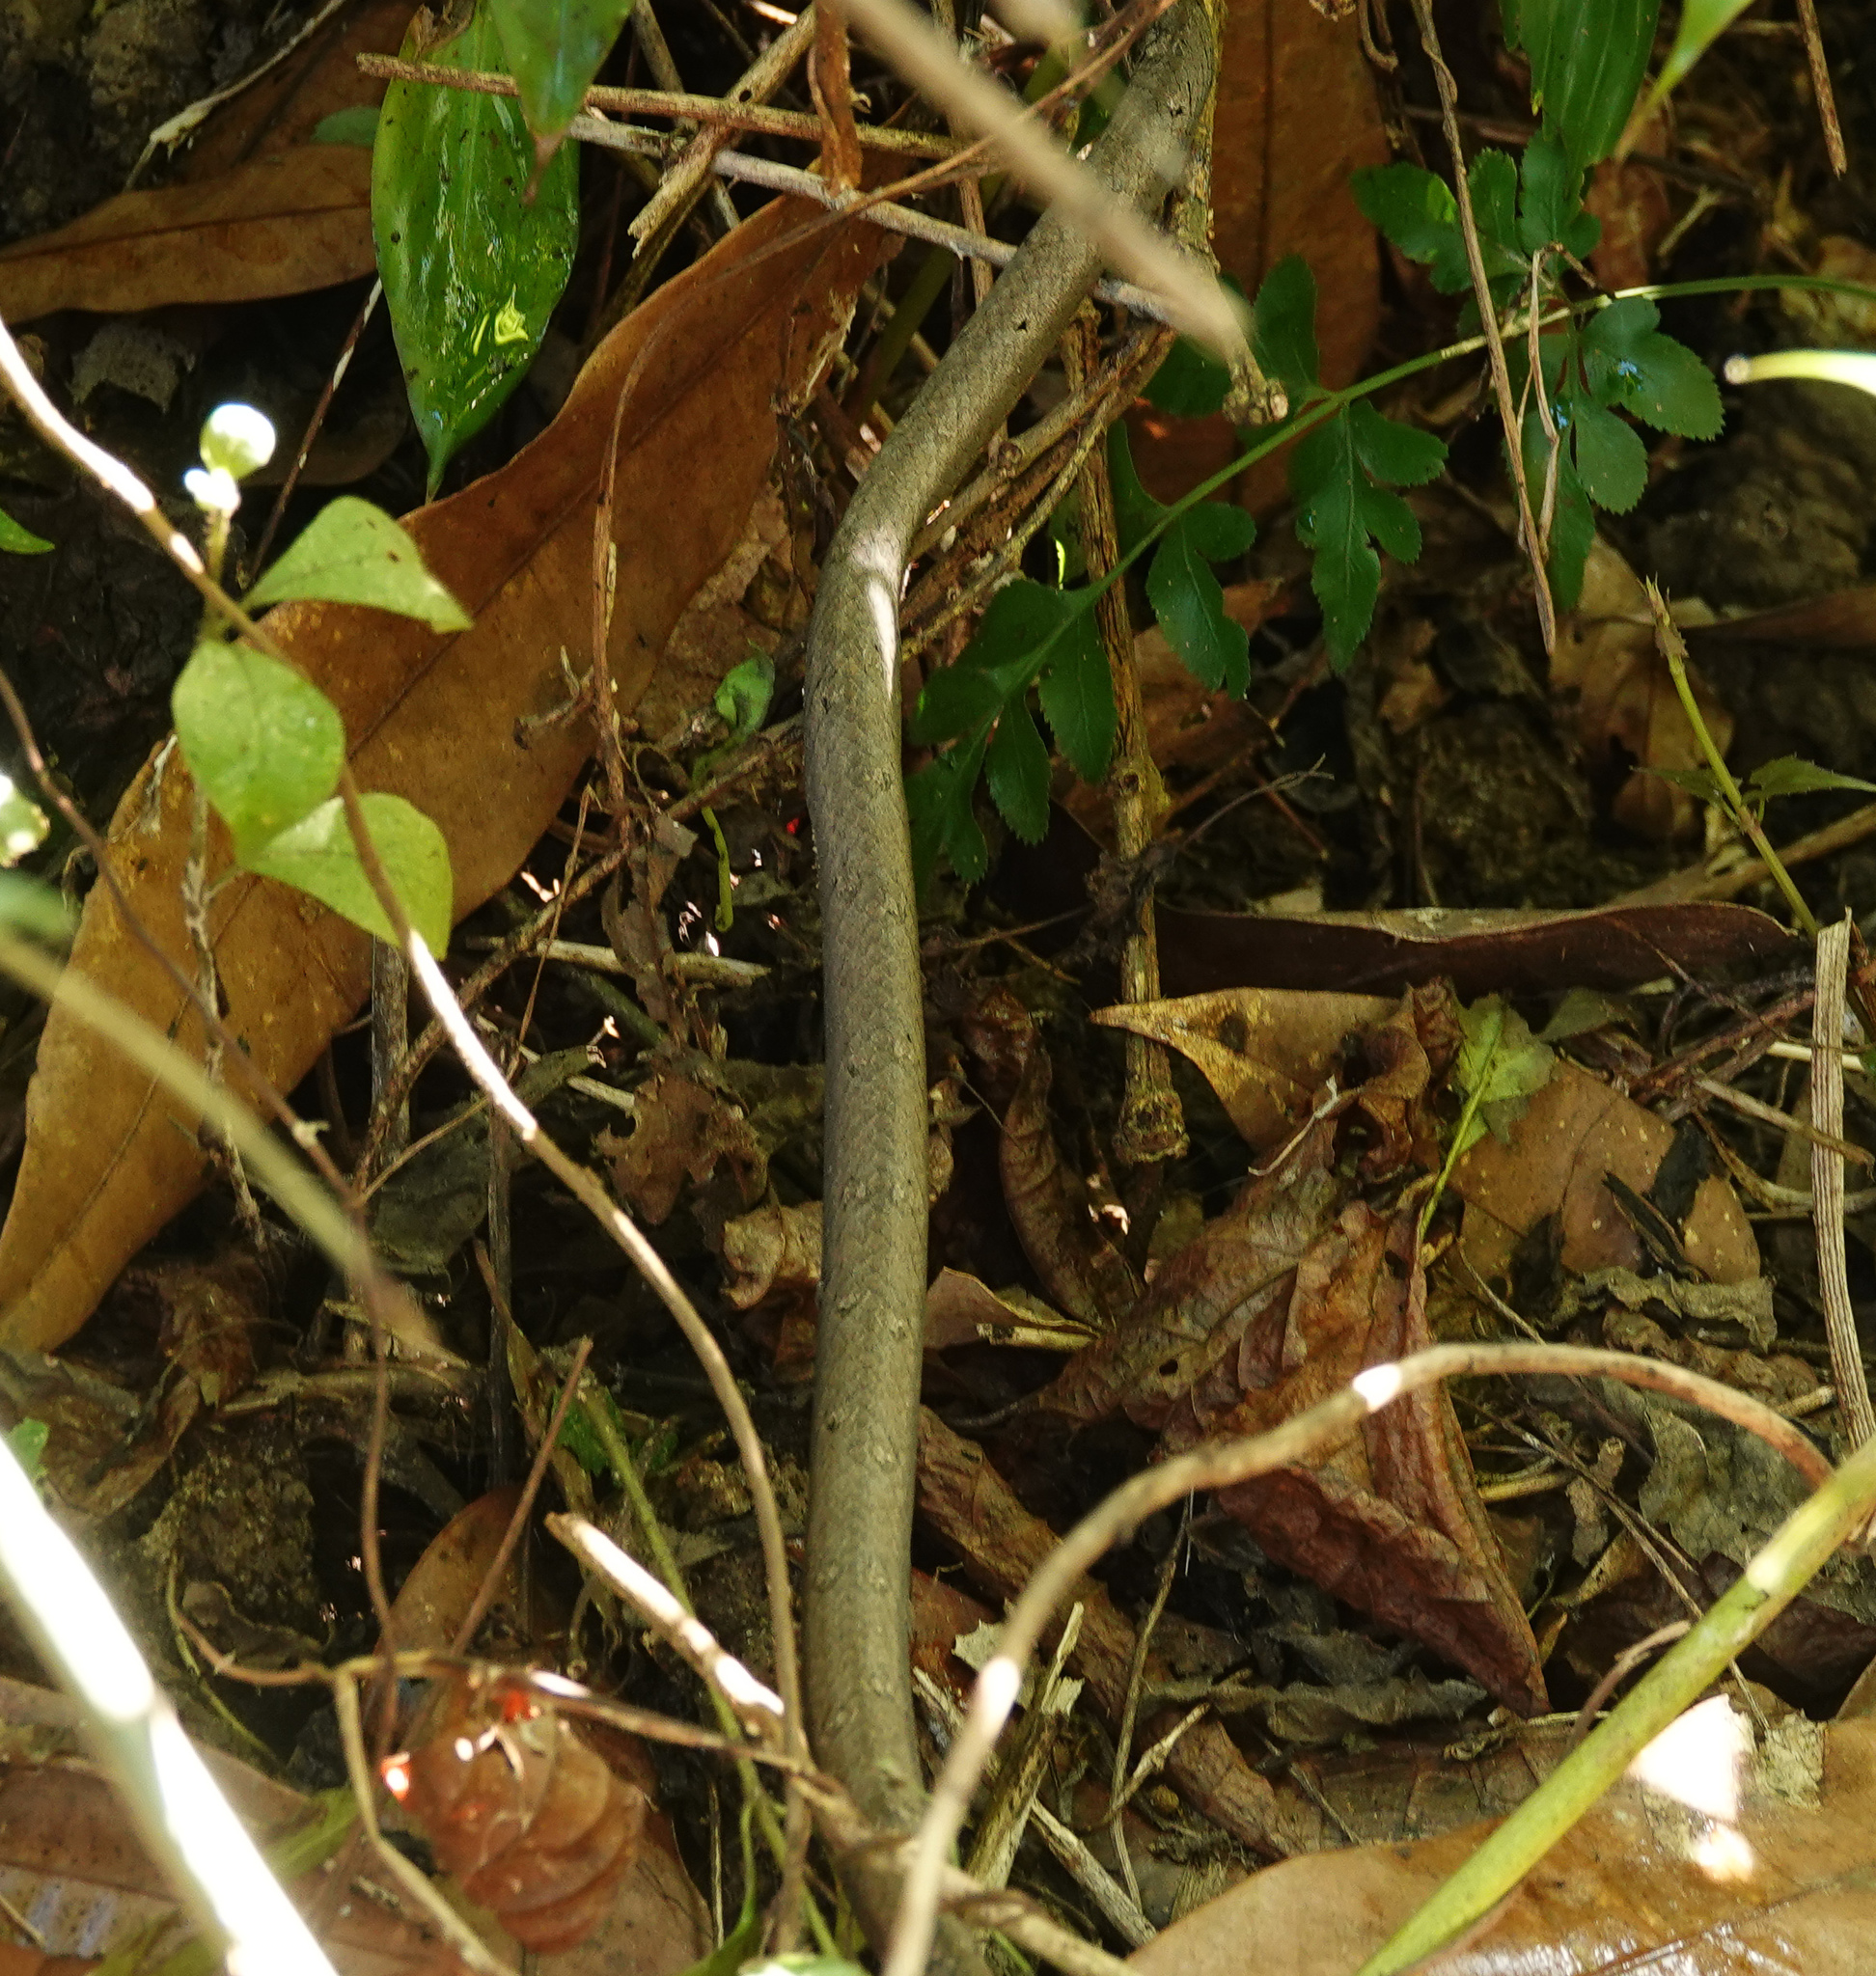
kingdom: Animalia
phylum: Chordata
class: Squamata
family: Pseudaspididae
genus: Psammodynastes
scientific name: Psammodynastes pulverulentus
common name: Common mock viper
